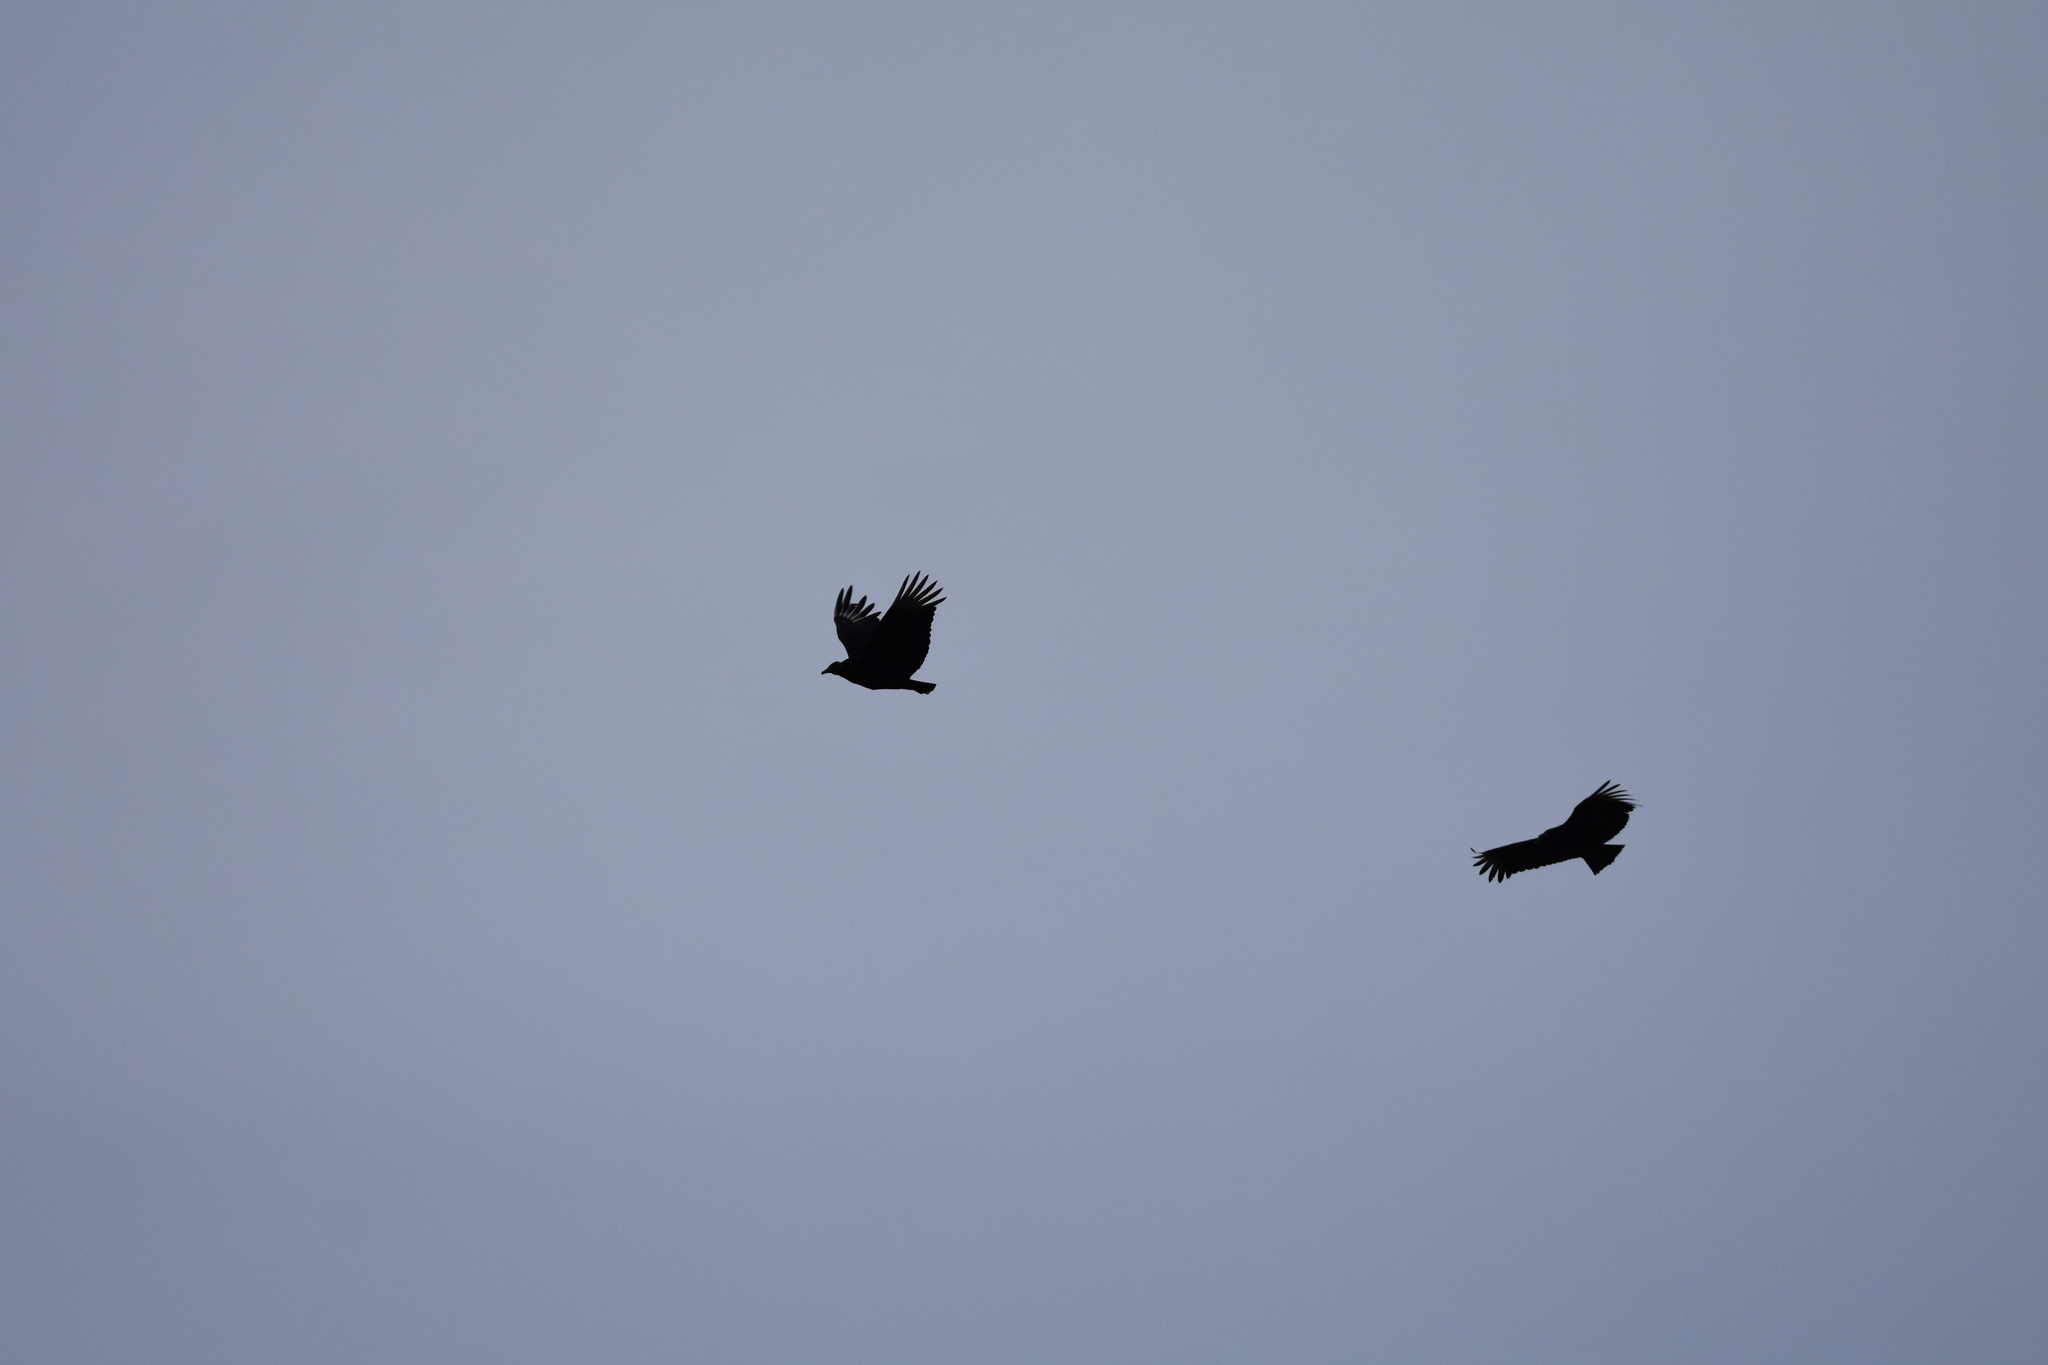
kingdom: Animalia
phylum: Chordata
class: Aves
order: Accipitriformes
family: Cathartidae
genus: Coragyps
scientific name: Coragyps atratus
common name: Black vulture
